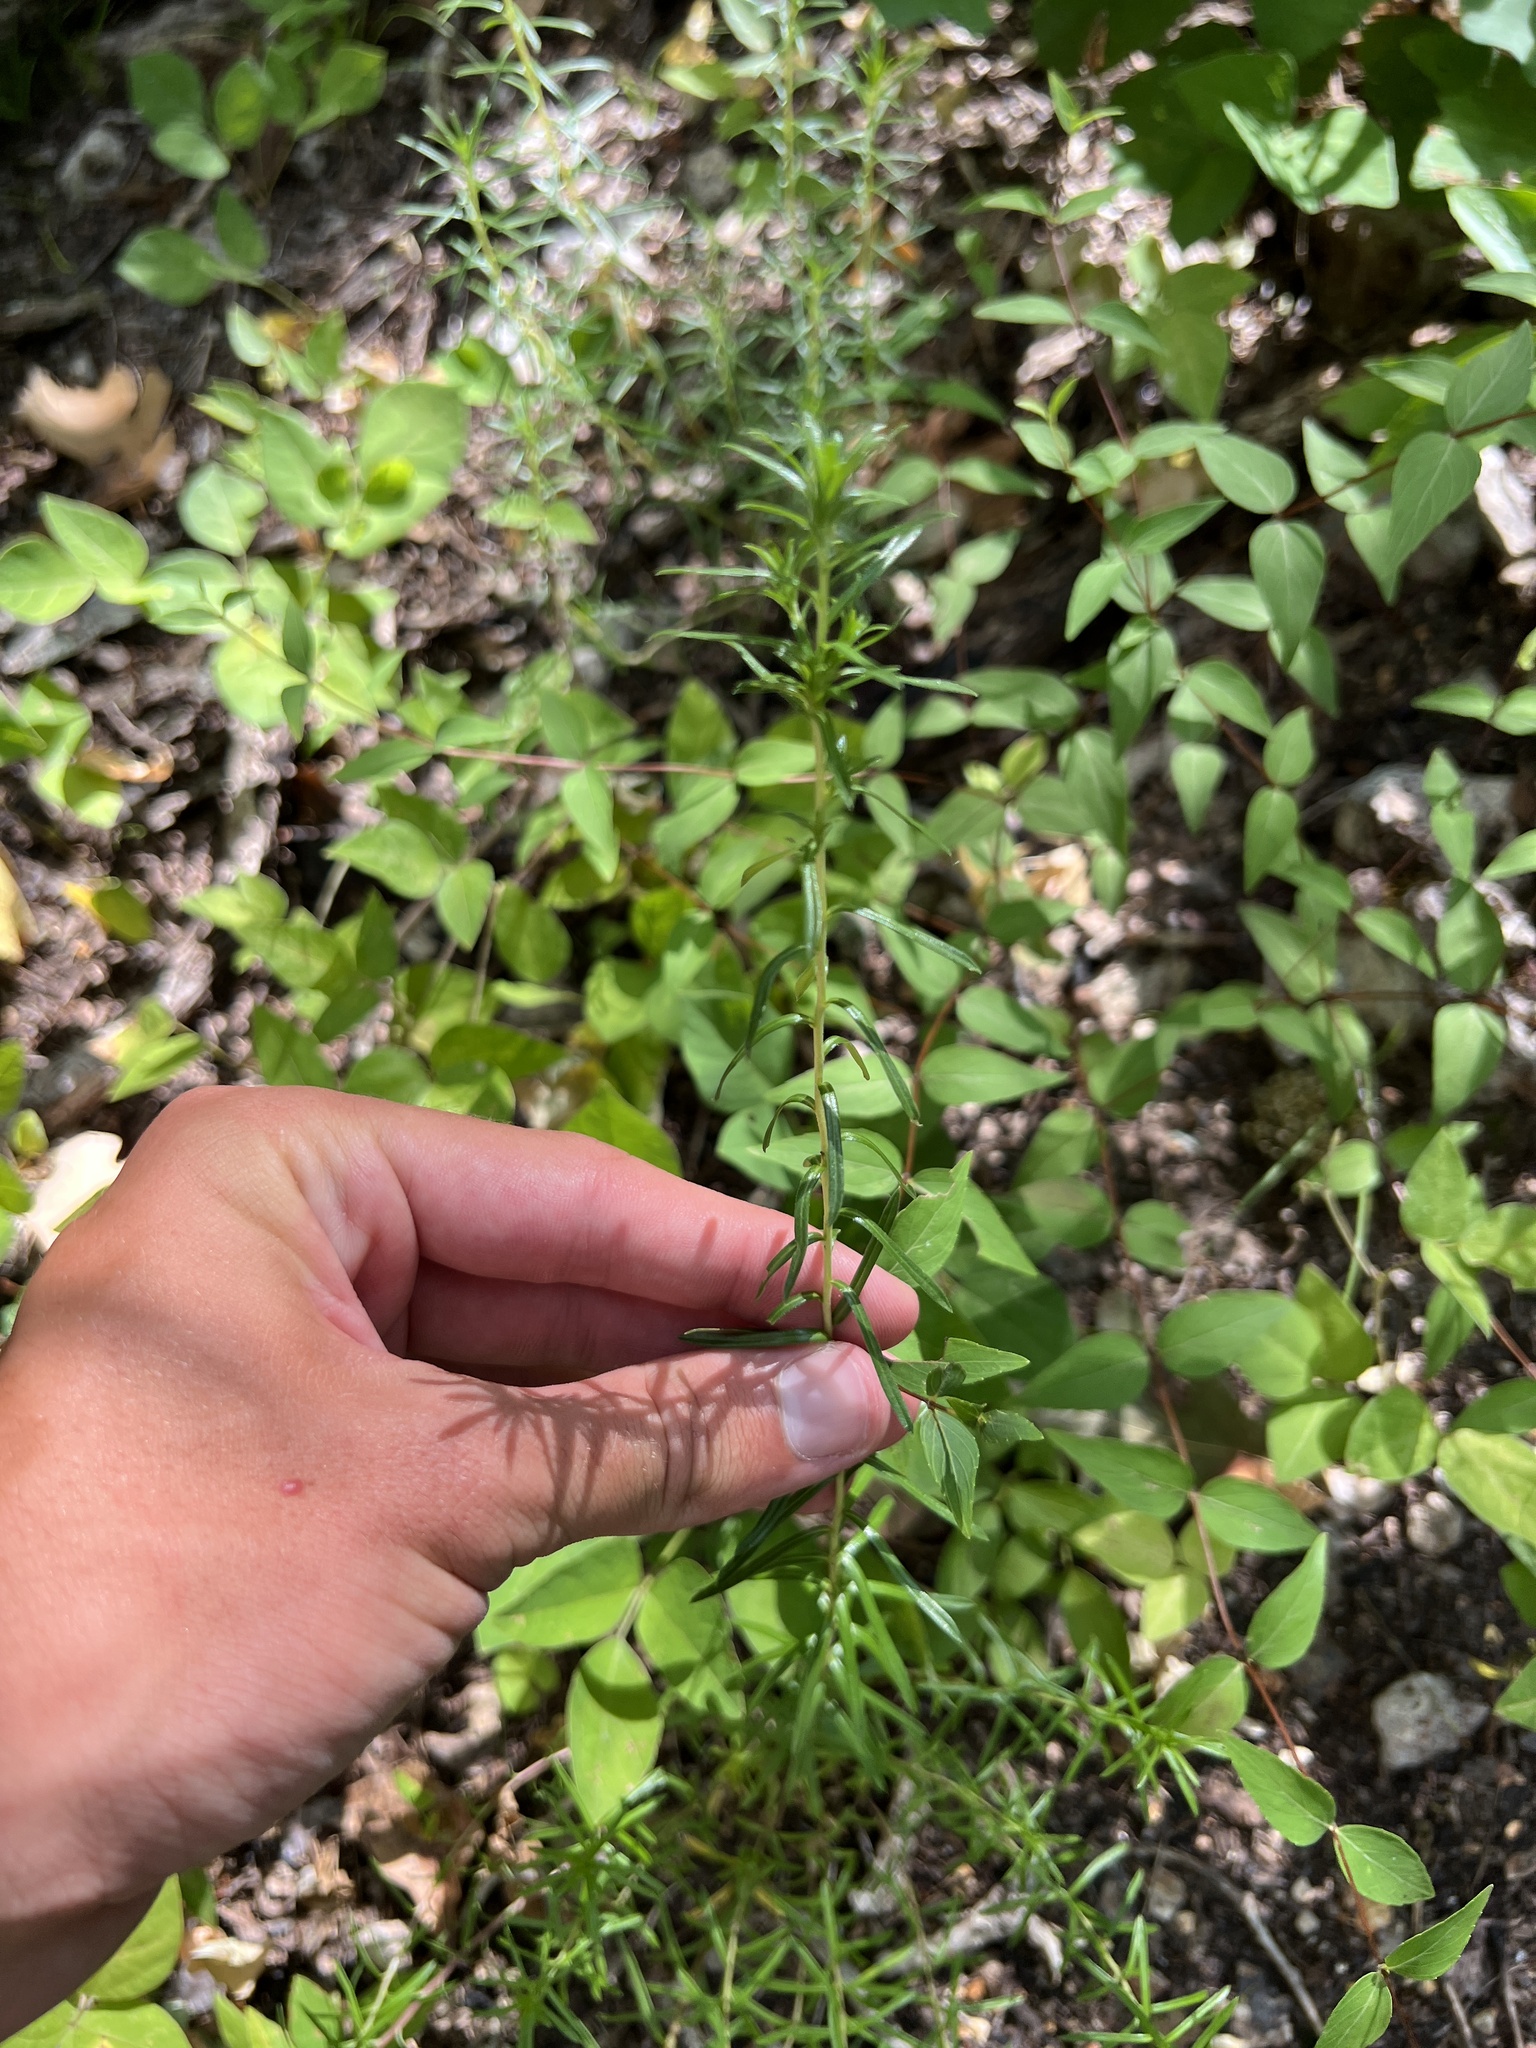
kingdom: Plantae
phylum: Tracheophyta
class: Magnoliopsida
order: Asterales
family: Asteraceae
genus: Ionactis
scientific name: Ionactis linariifolia
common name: Flax-leaf aster
